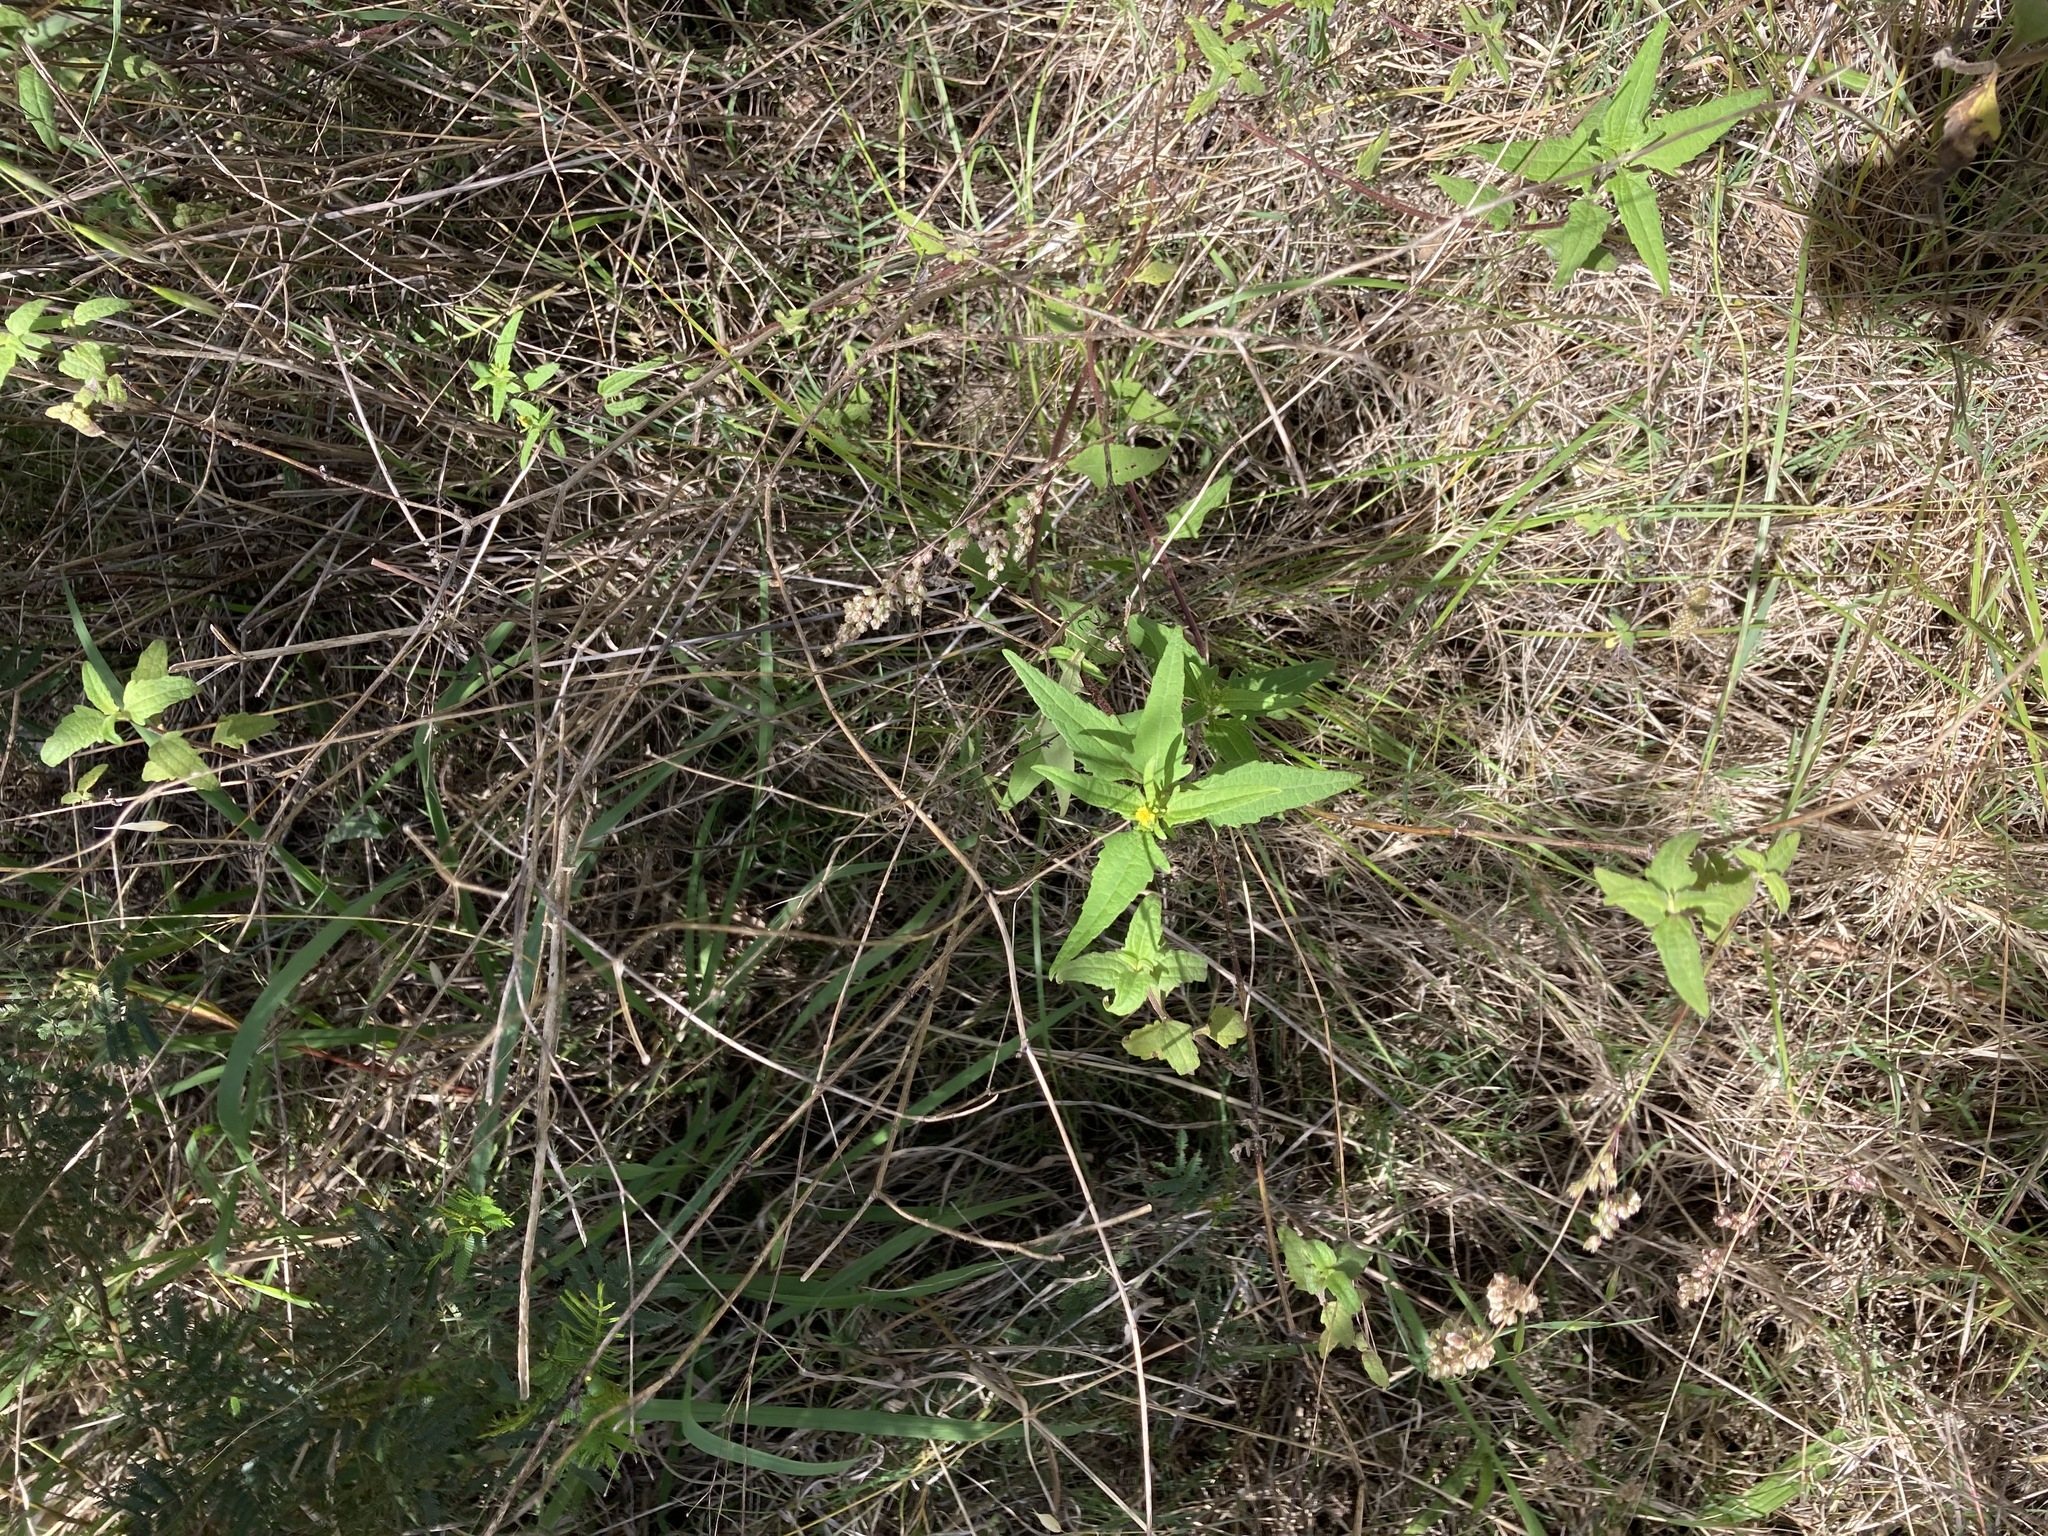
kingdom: Plantae
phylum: Tracheophyta
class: Magnoliopsida
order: Asterales
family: Asteraceae
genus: Sigesbeckia
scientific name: Sigesbeckia orientalis
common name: Eastern st paul's-wort
